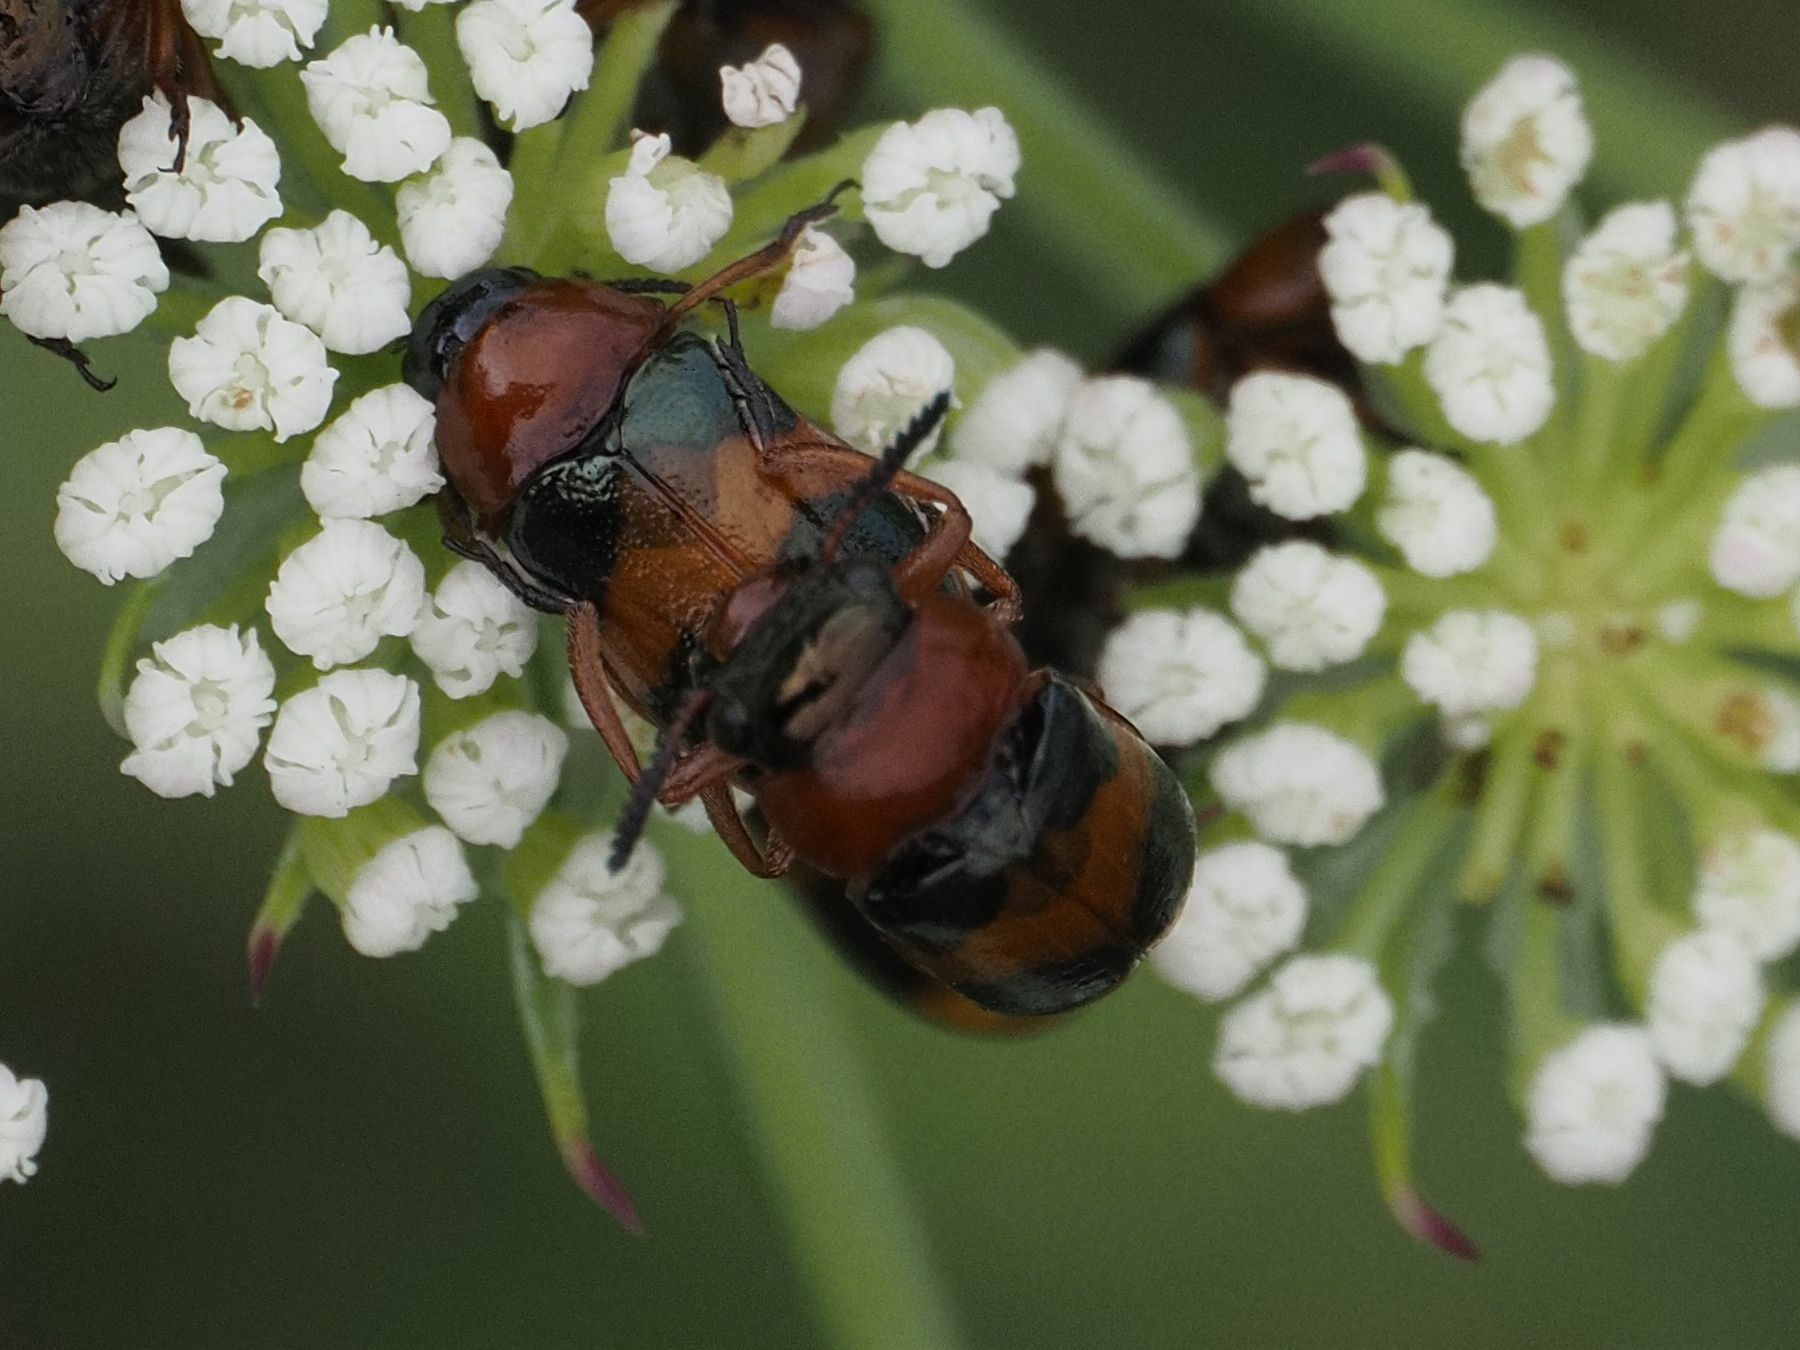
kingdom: Animalia
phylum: Arthropoda
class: Insecta
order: Coleoptera
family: Chrysomelidae
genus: Coptocephala
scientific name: Coptocephala unifasciata
